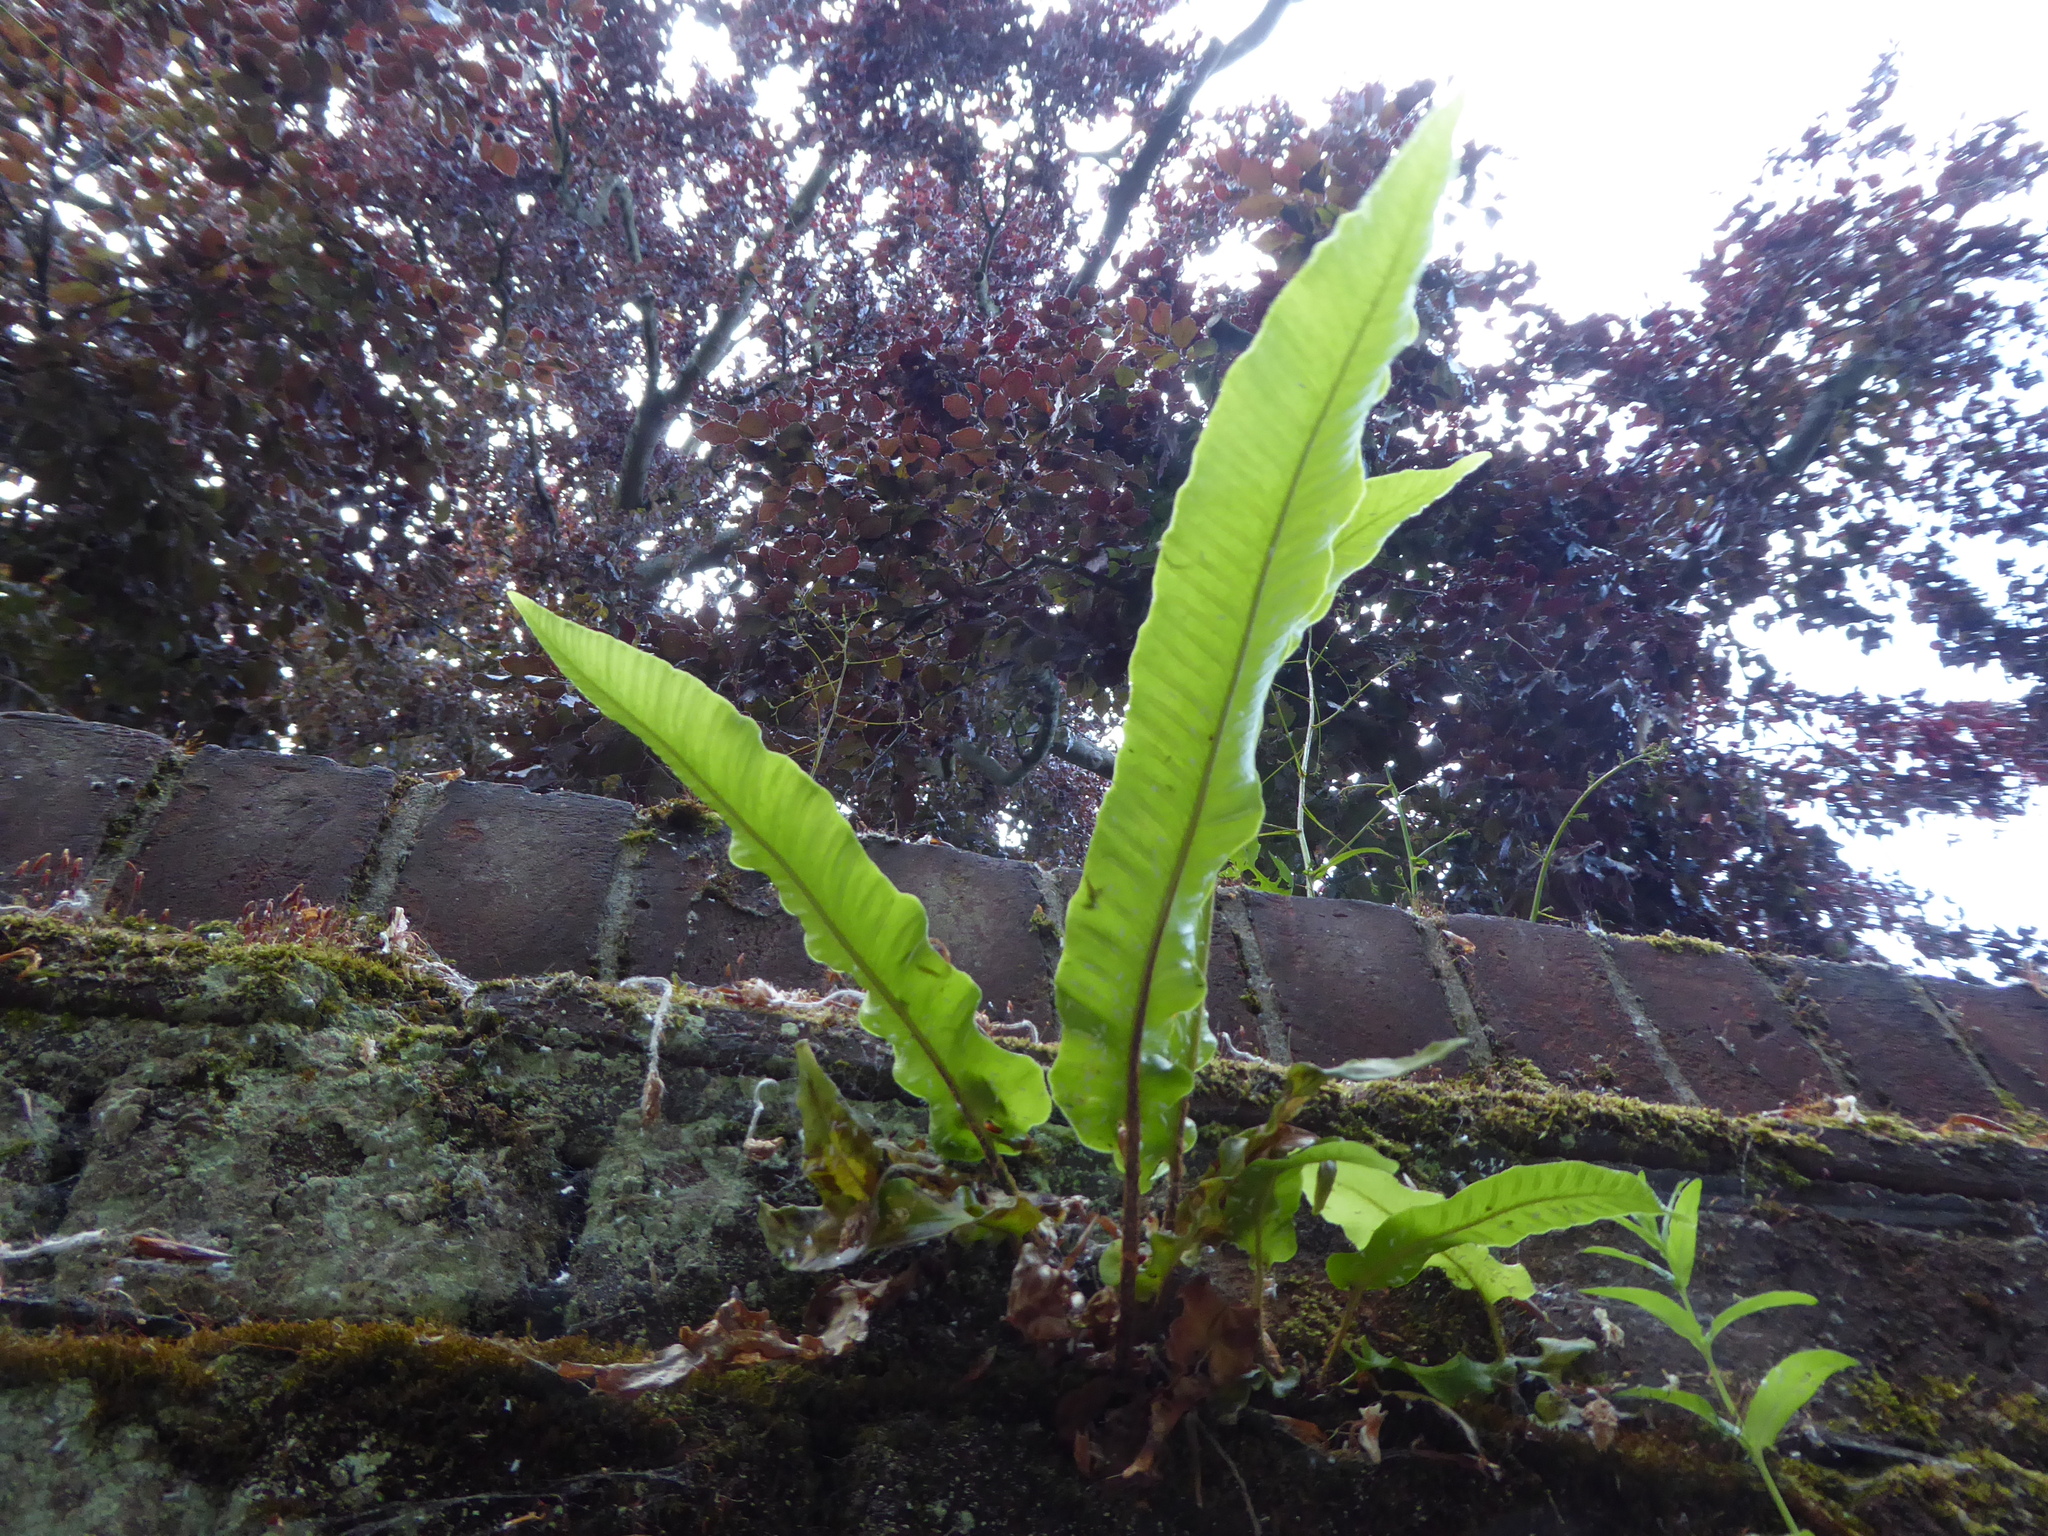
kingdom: Plantae
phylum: Tracheophyta
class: Polypodiopsida
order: Polypodiales
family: Aspleniaceae
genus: Asplenium
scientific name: Asplenium scolopendrium
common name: Hart's-tongue fern
